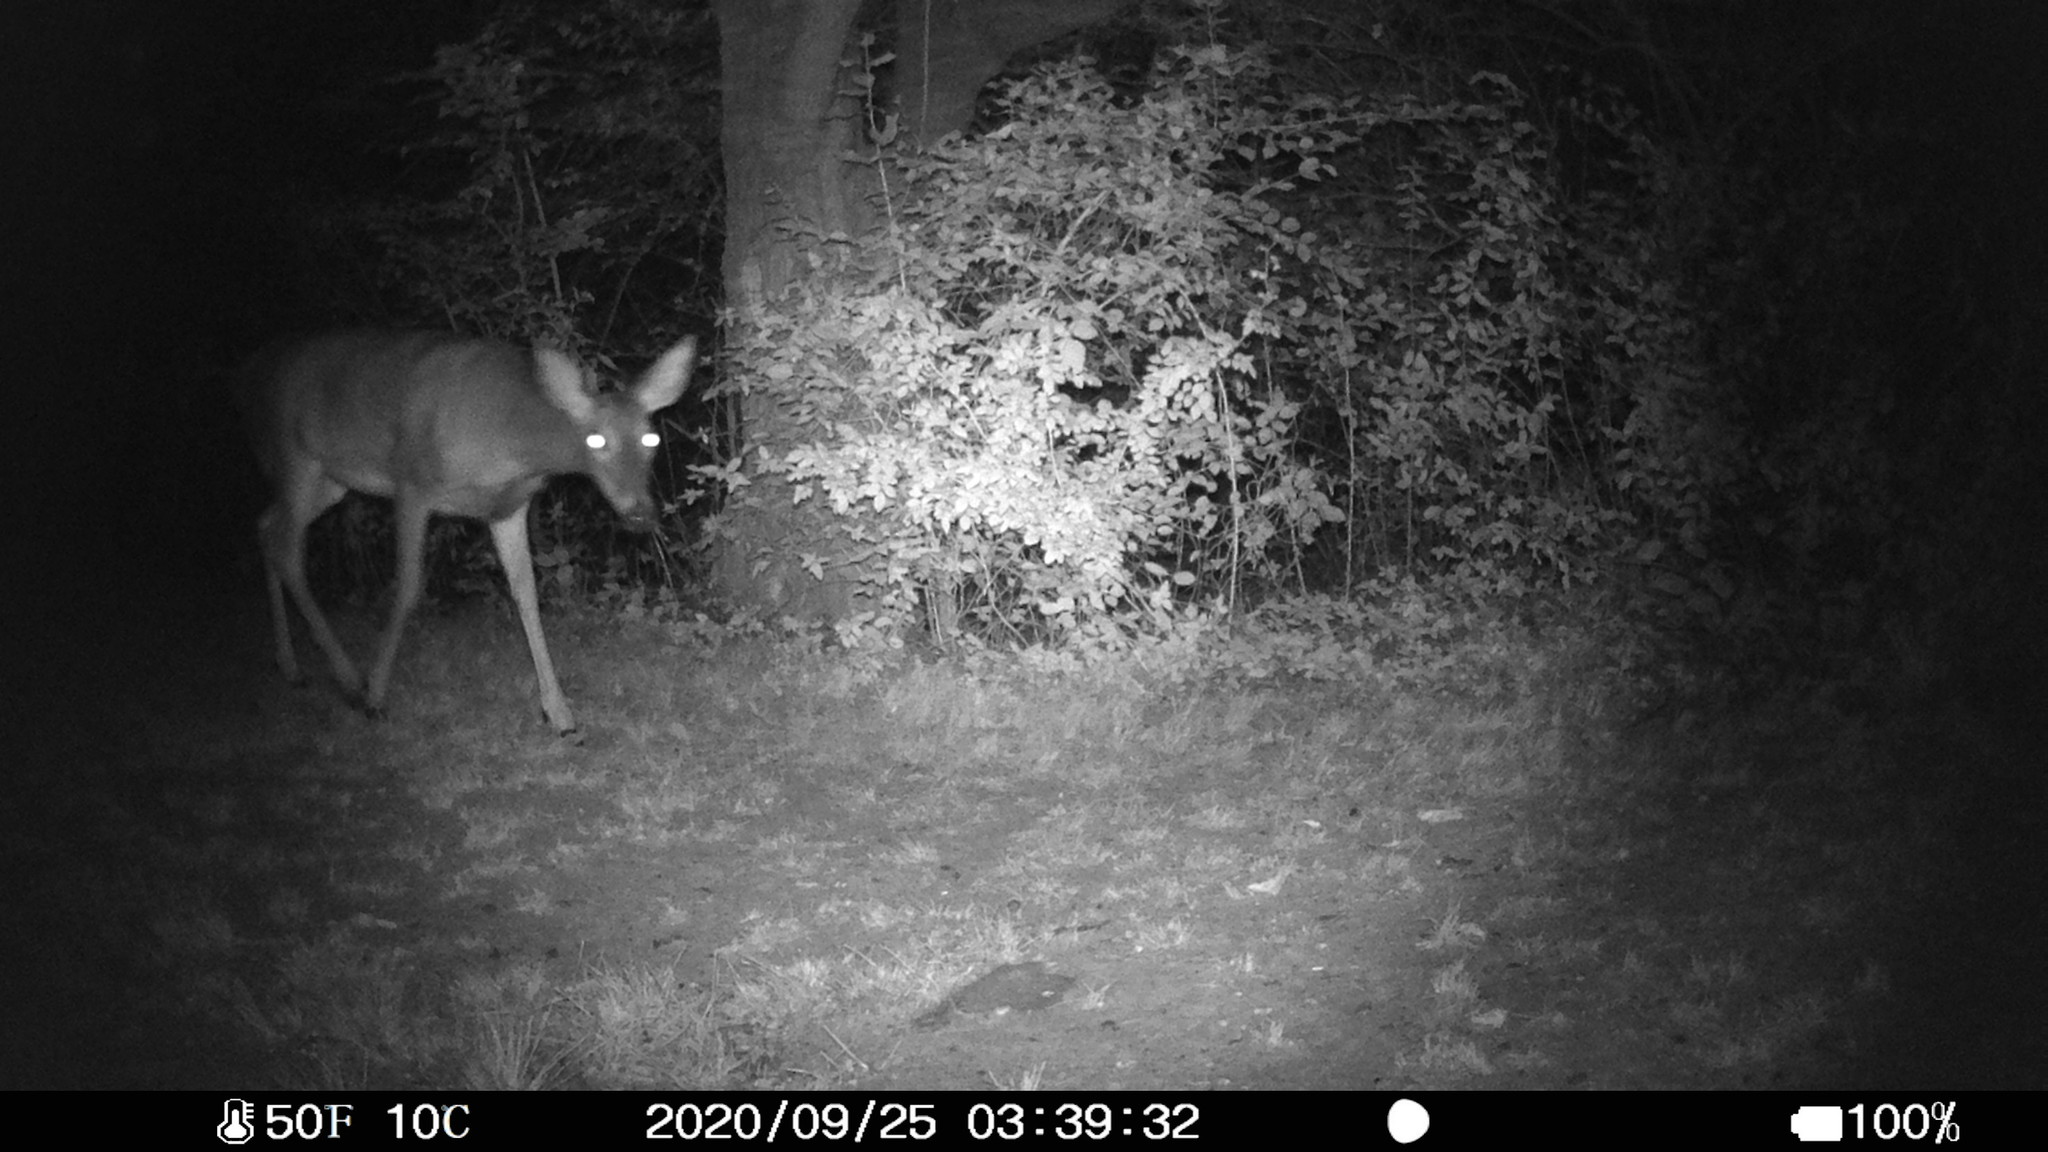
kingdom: Animalia
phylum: Chordata
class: Mammalia
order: Artiodactyla
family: Cervidae
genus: Odocoileus
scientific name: Odocoileus virginianus
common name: White-tailed deer
